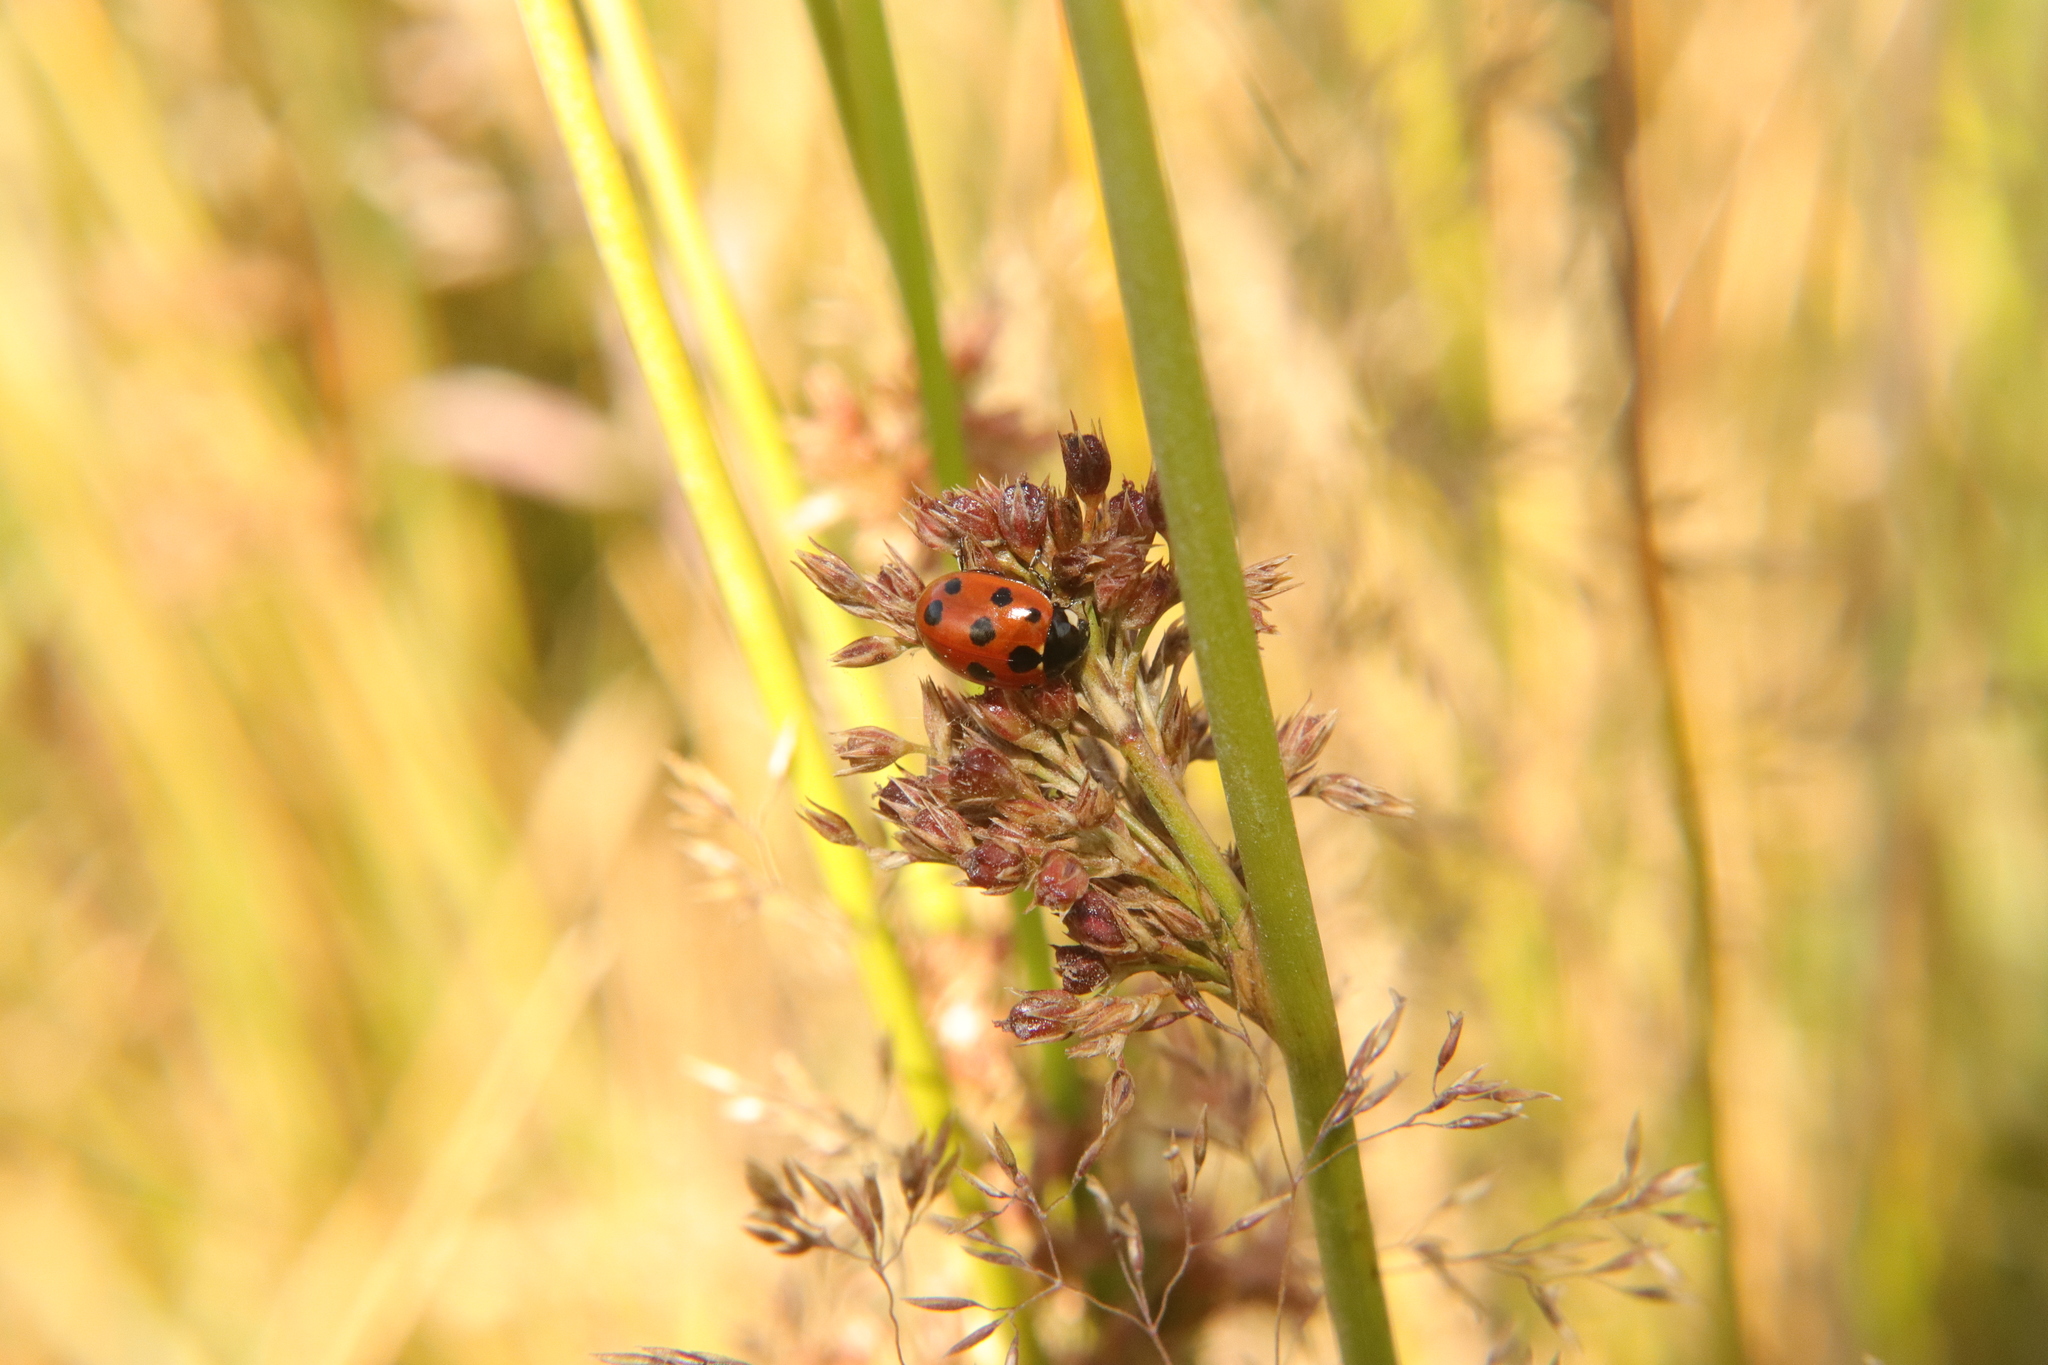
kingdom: Animalia
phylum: Arthropoda
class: Insecta
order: Coleoptera
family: Coccinellidae
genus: Coccinella
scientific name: Coccinella undecimpunctata
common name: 11-spot ladybird
